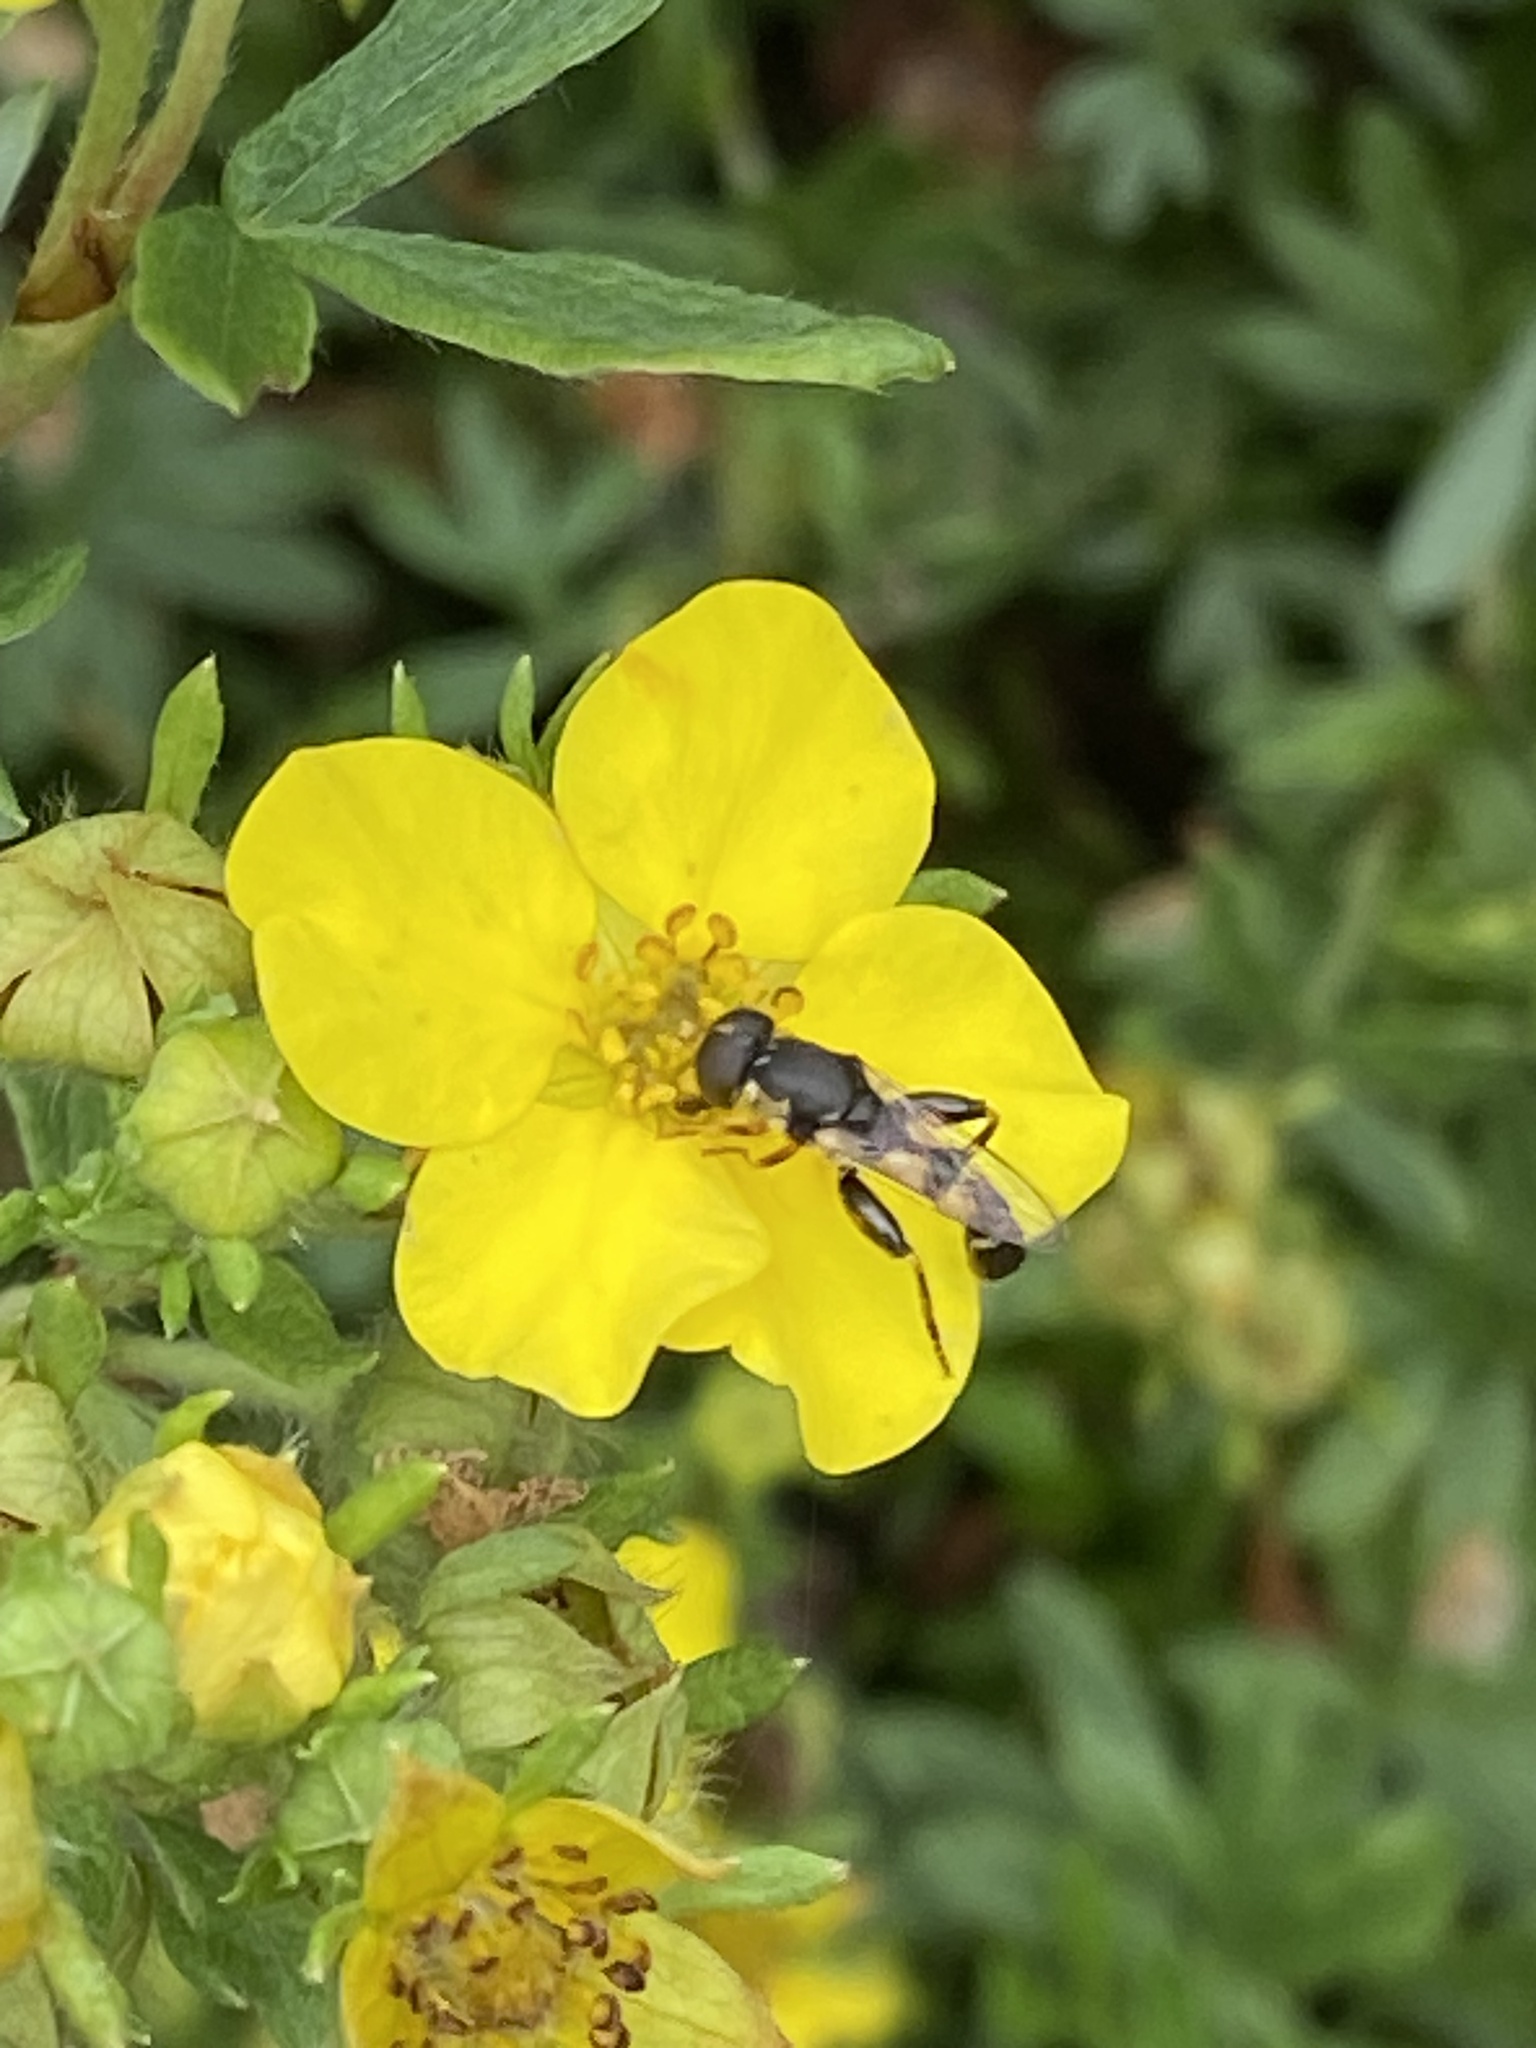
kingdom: Animalia
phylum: Arthropoda
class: Insecta
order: Diptera
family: Syrphidae
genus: Syritta
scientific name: Syritta pipiens
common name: Hover fly
